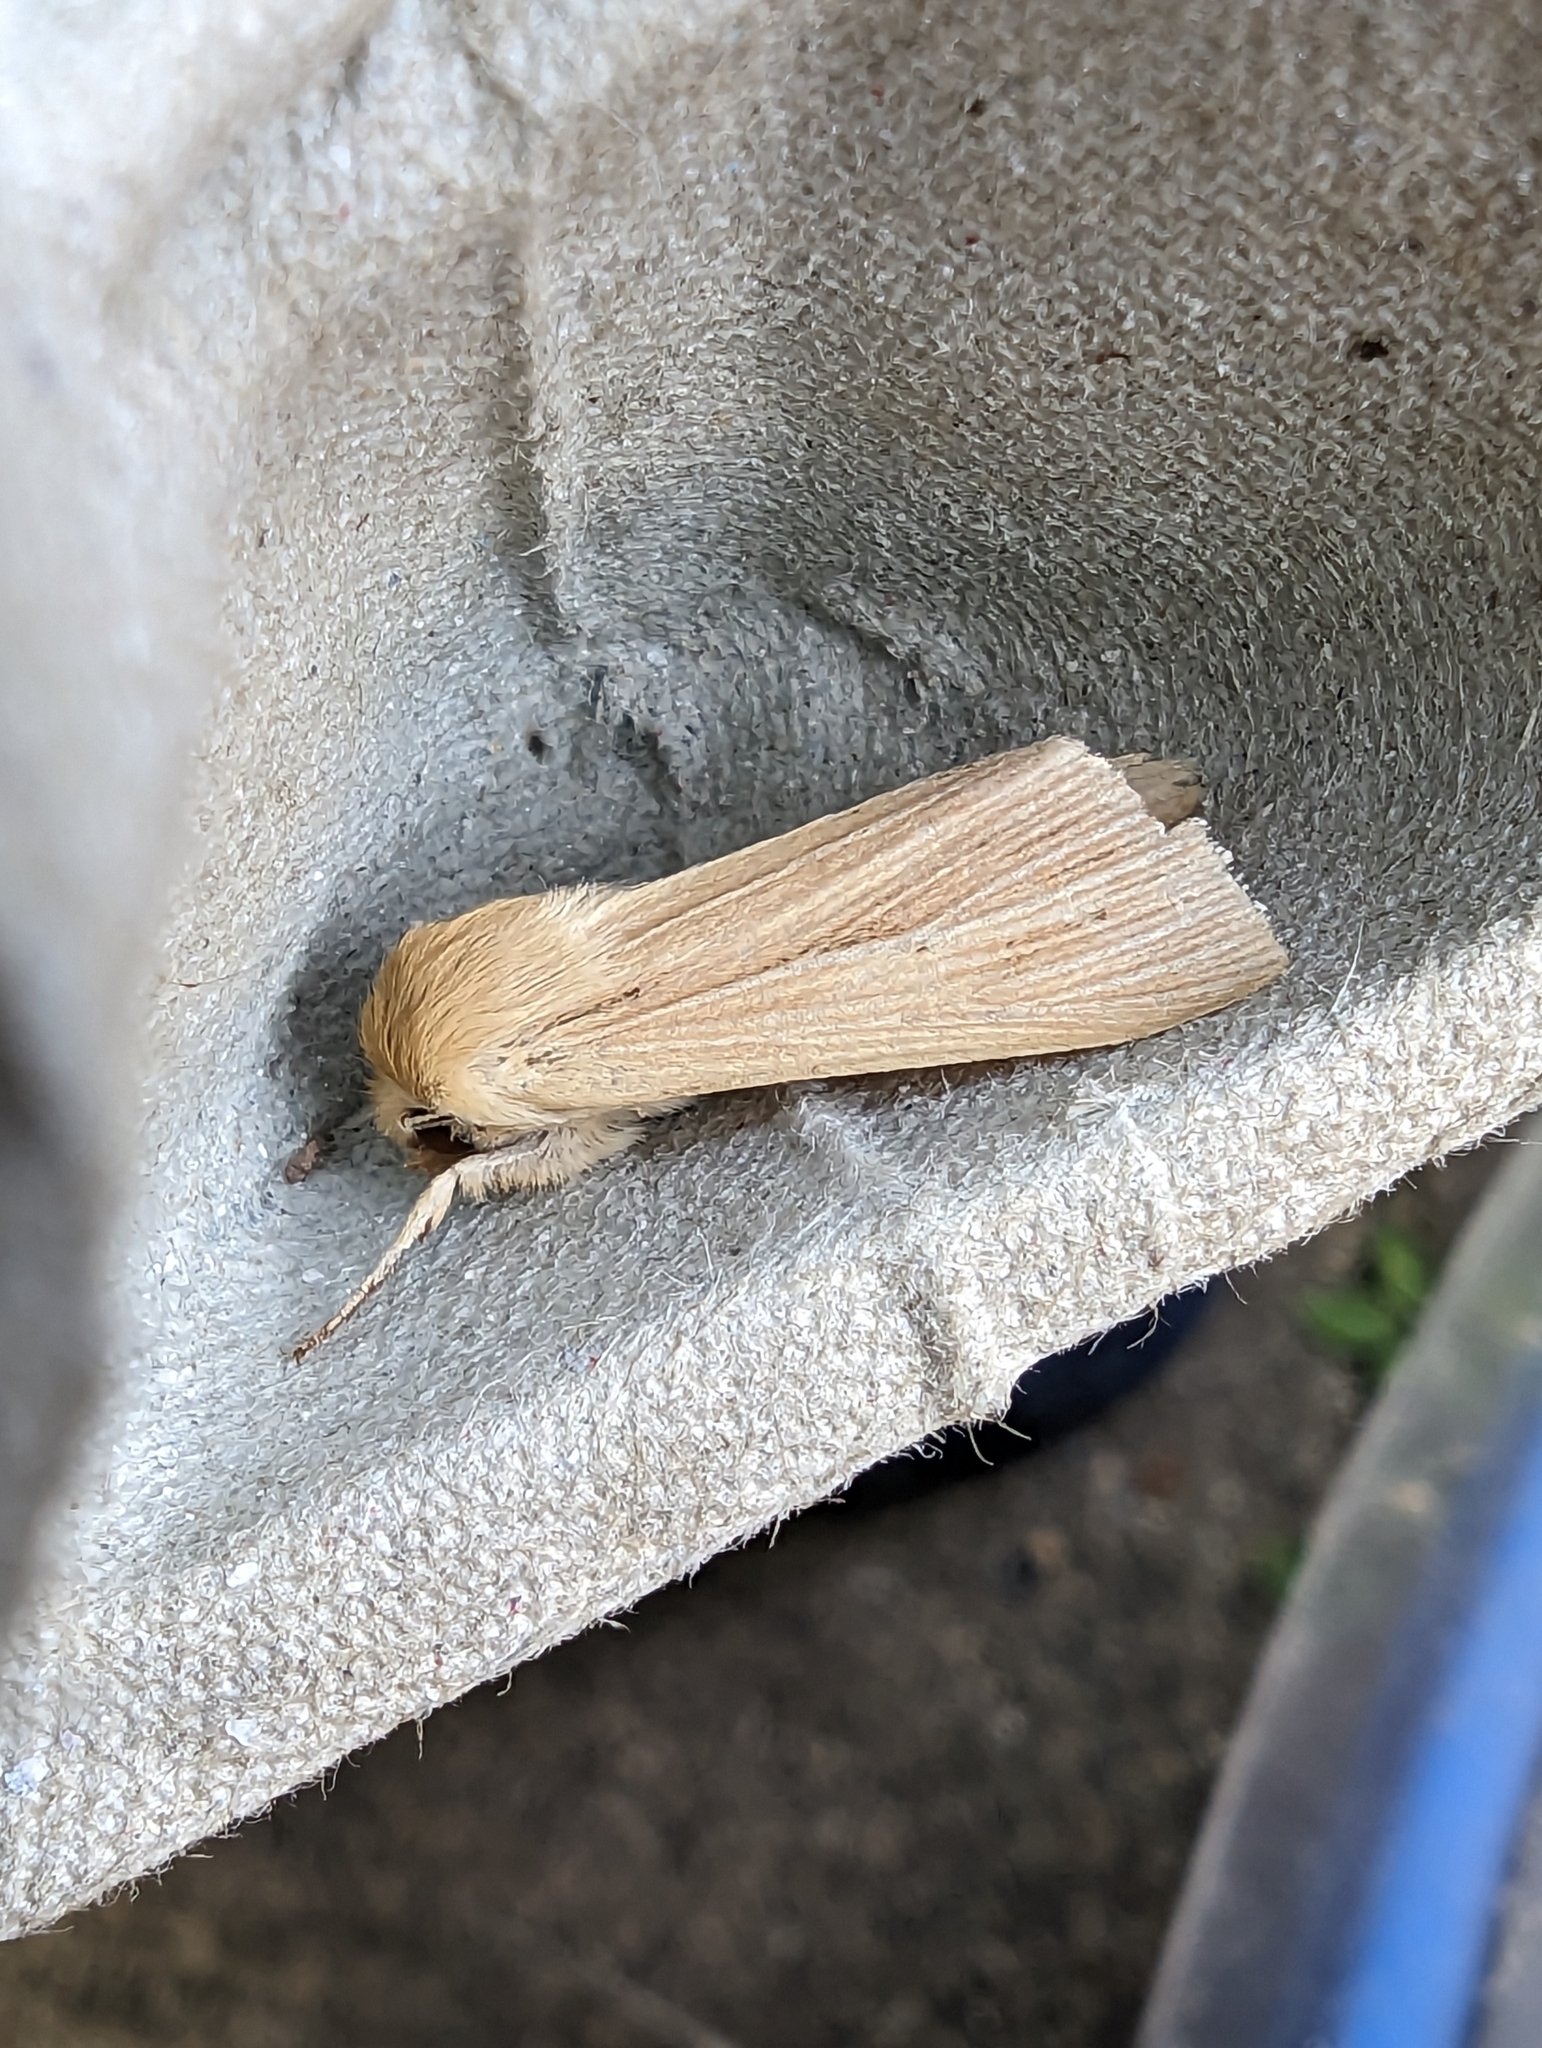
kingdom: Animalia
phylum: Arthropoda
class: Insecta
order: Lepidoptera
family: Noctuidae
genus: Mythimna
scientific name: Mythimna pallens
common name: Common wainscot
